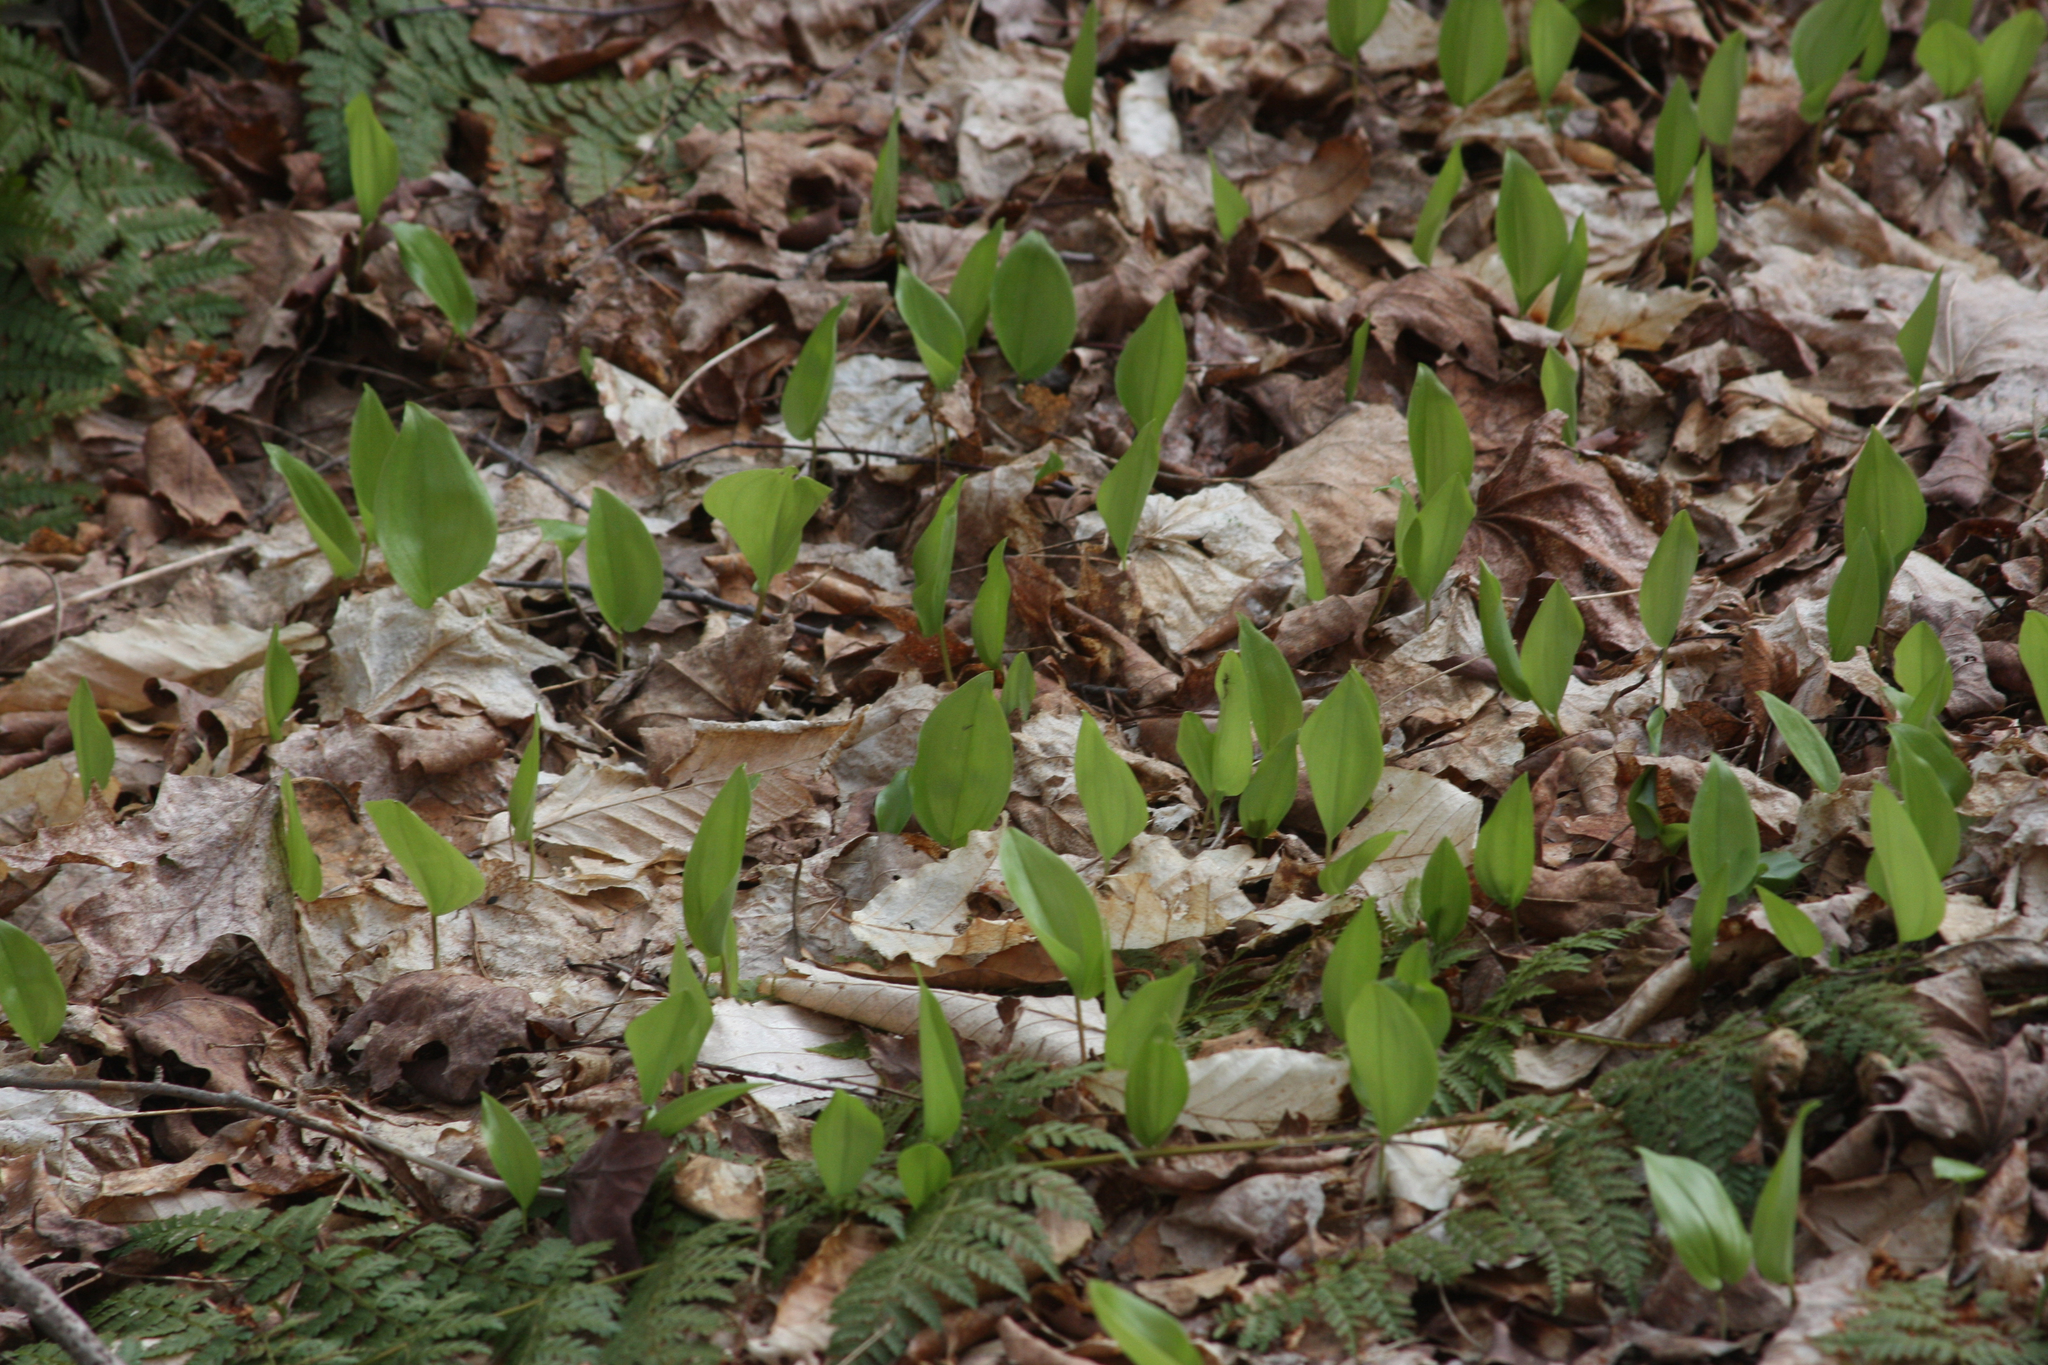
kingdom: Plantae
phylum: Tracheophyta
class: Liliopsida
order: Asparagales
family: Asparagaceae
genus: Maianthemum
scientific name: Maianthemum canadense
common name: False lily-of-the-valley
